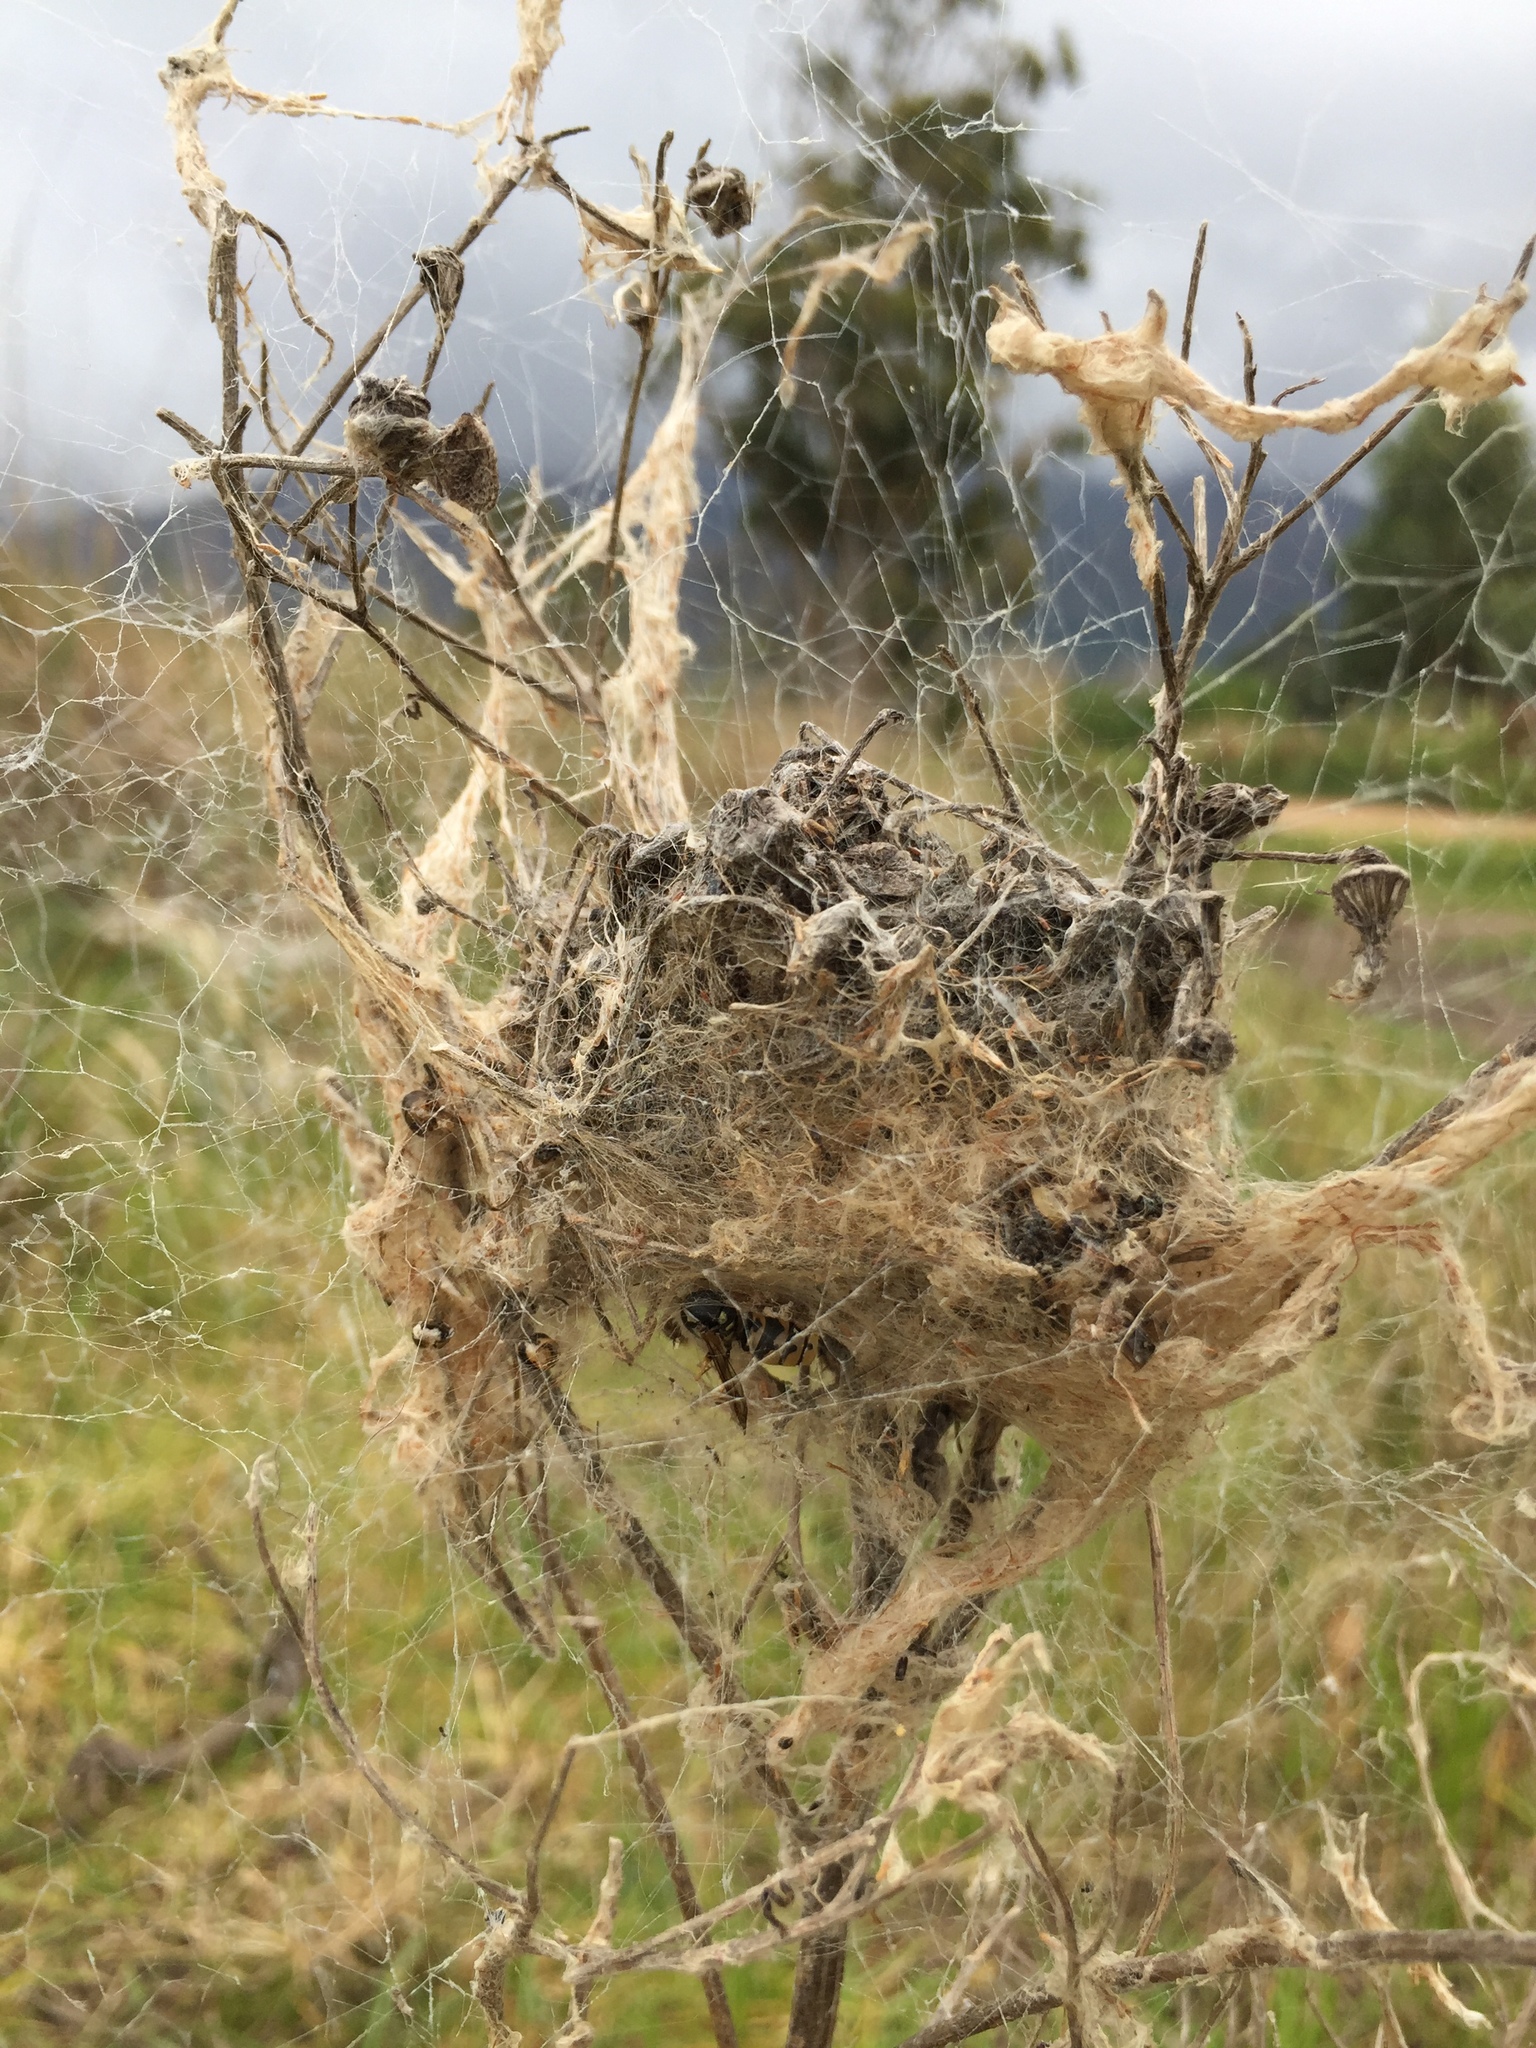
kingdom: Animalia
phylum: Arthropoda
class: Arachnida
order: Araneae
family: Eresidae
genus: Stegodyphus
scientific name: Stegodyphus dumicola
